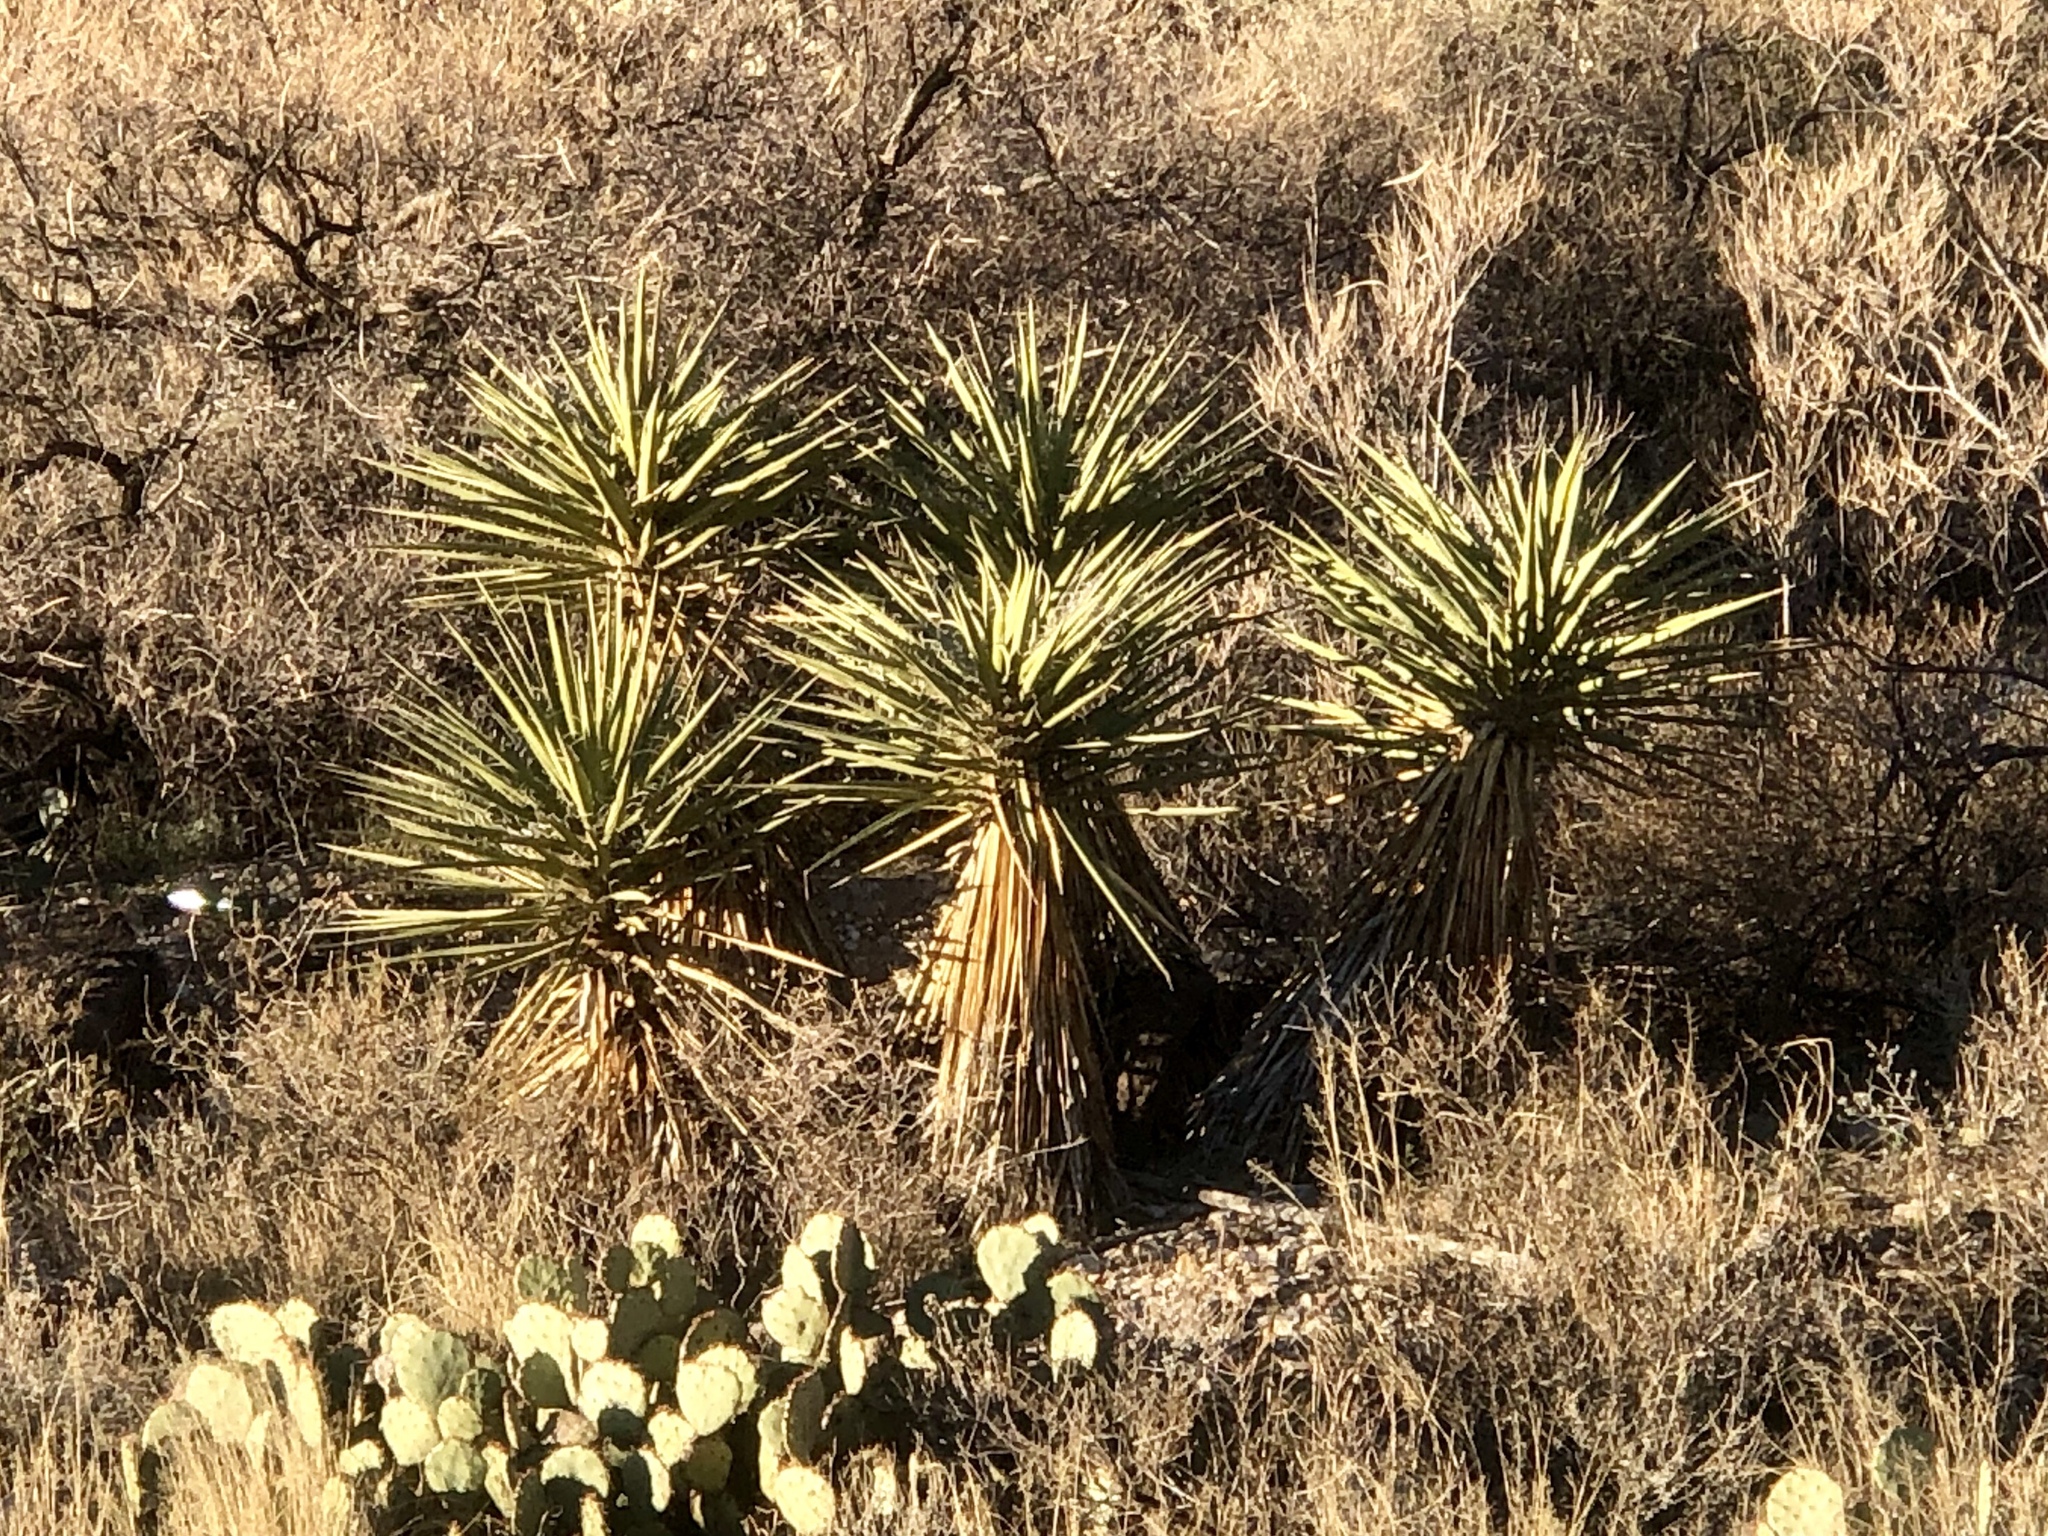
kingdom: Plantae
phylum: Tracheophyta
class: Liliopsida
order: Asparagales
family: Asparagaceae
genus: Yucca
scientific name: Yucca treculiana
